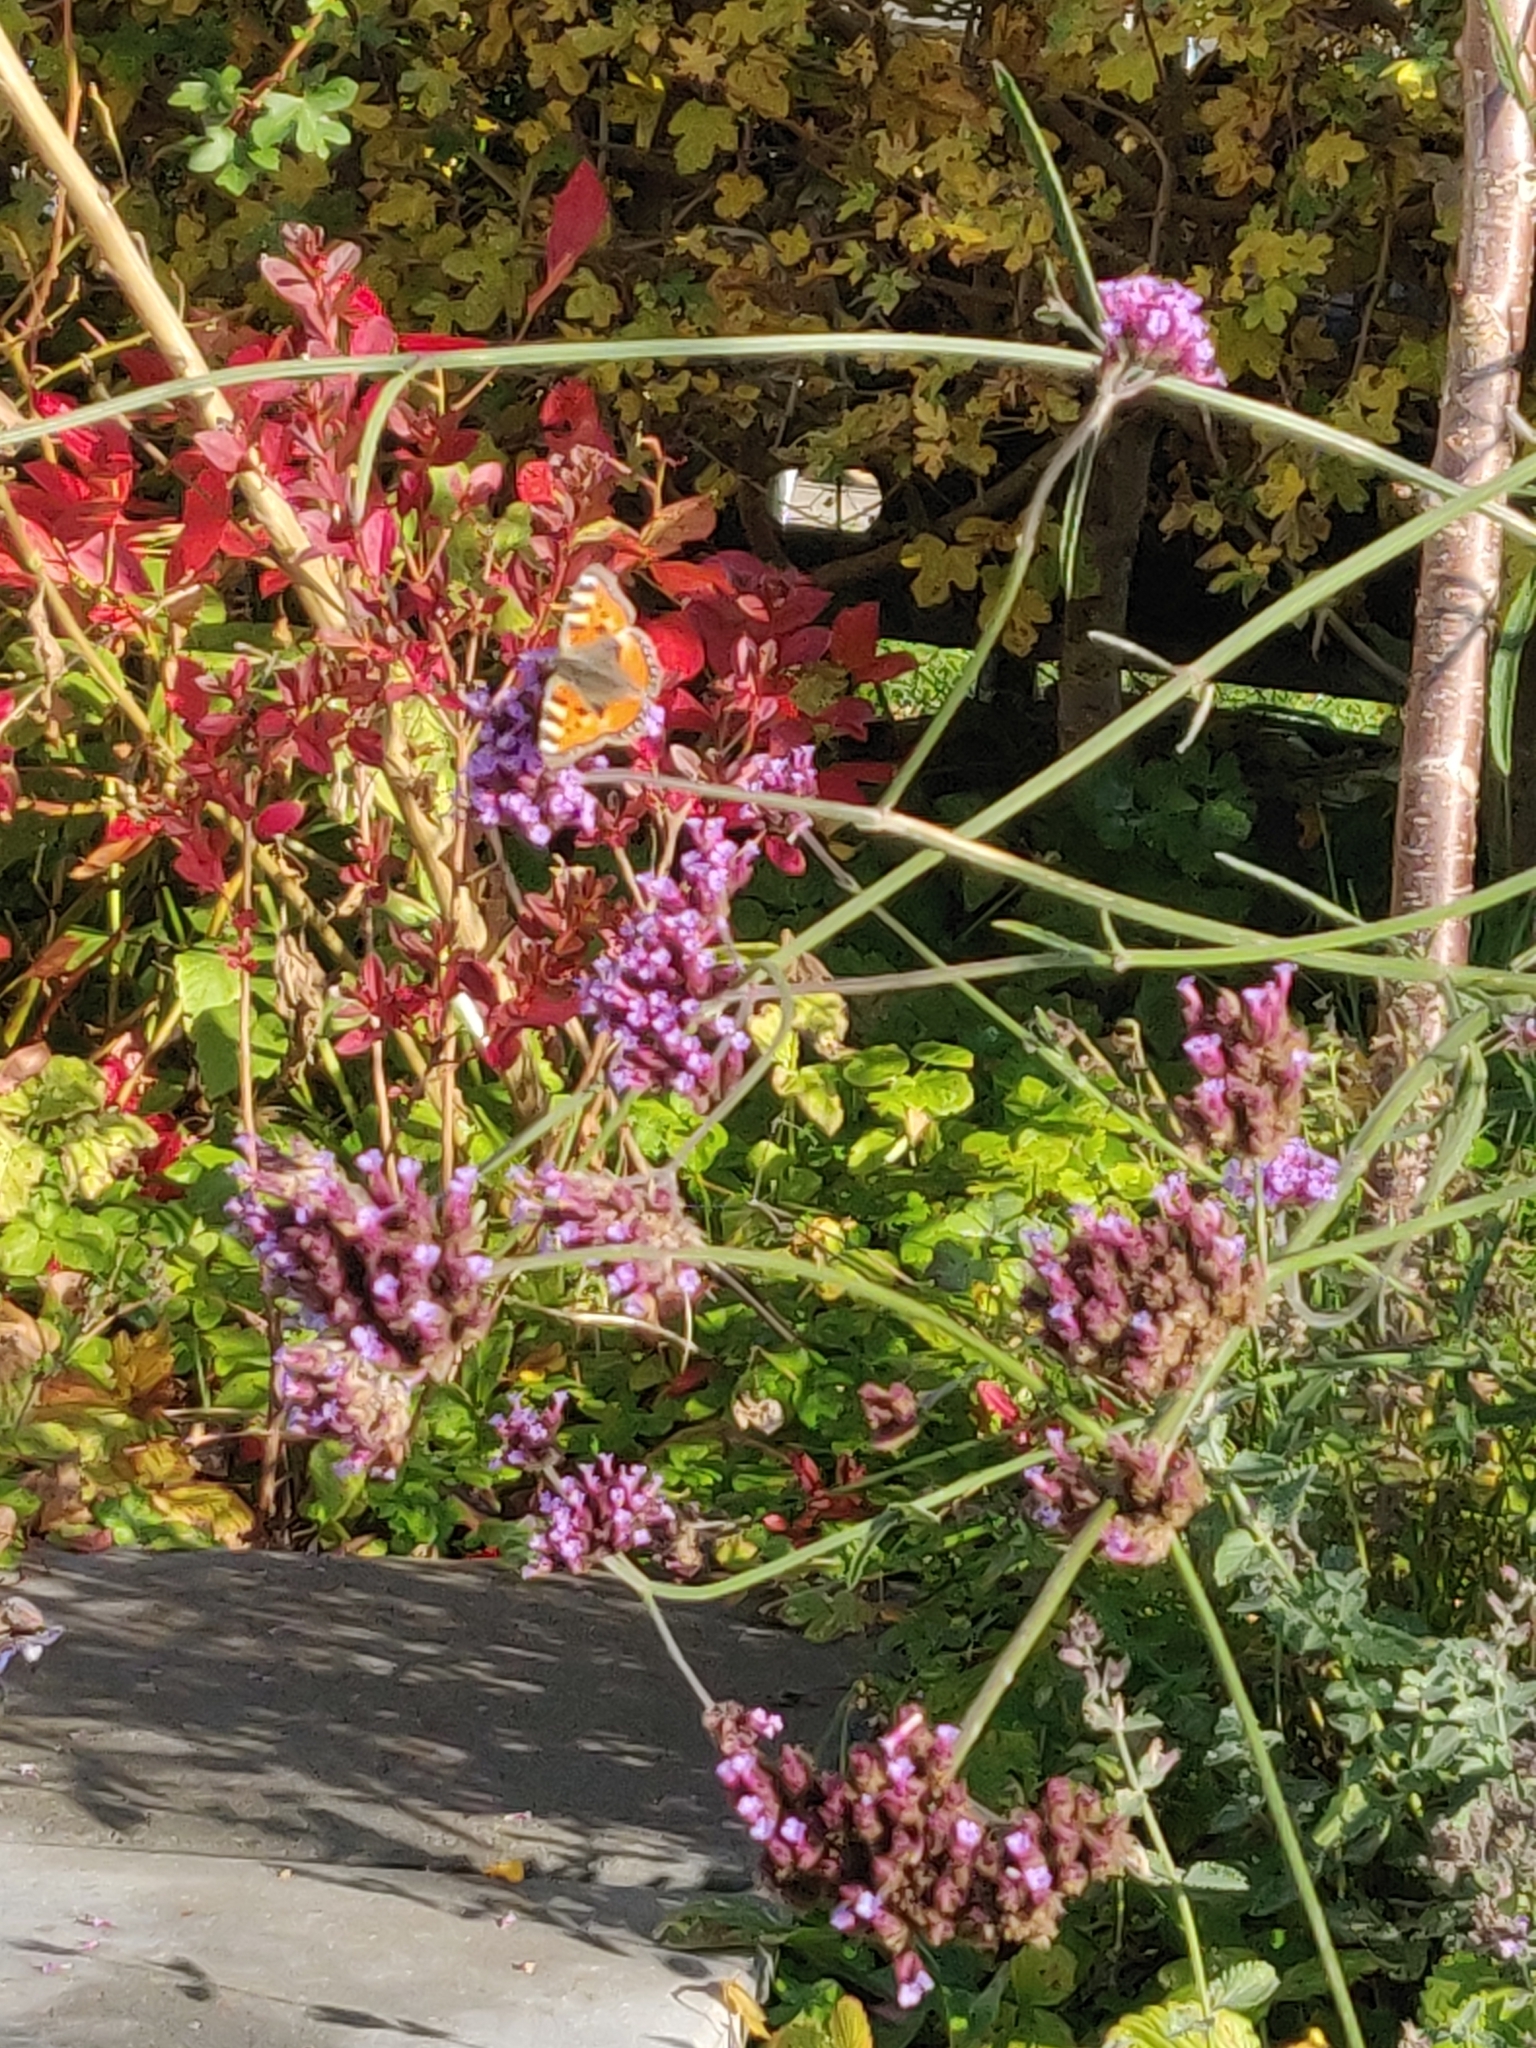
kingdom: Animalia
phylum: Arthropoda
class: Insecta
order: Lepidoptera
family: Nymphalidae
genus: Aglais
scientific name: Aglais urticae
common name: Small tortoiseshell
